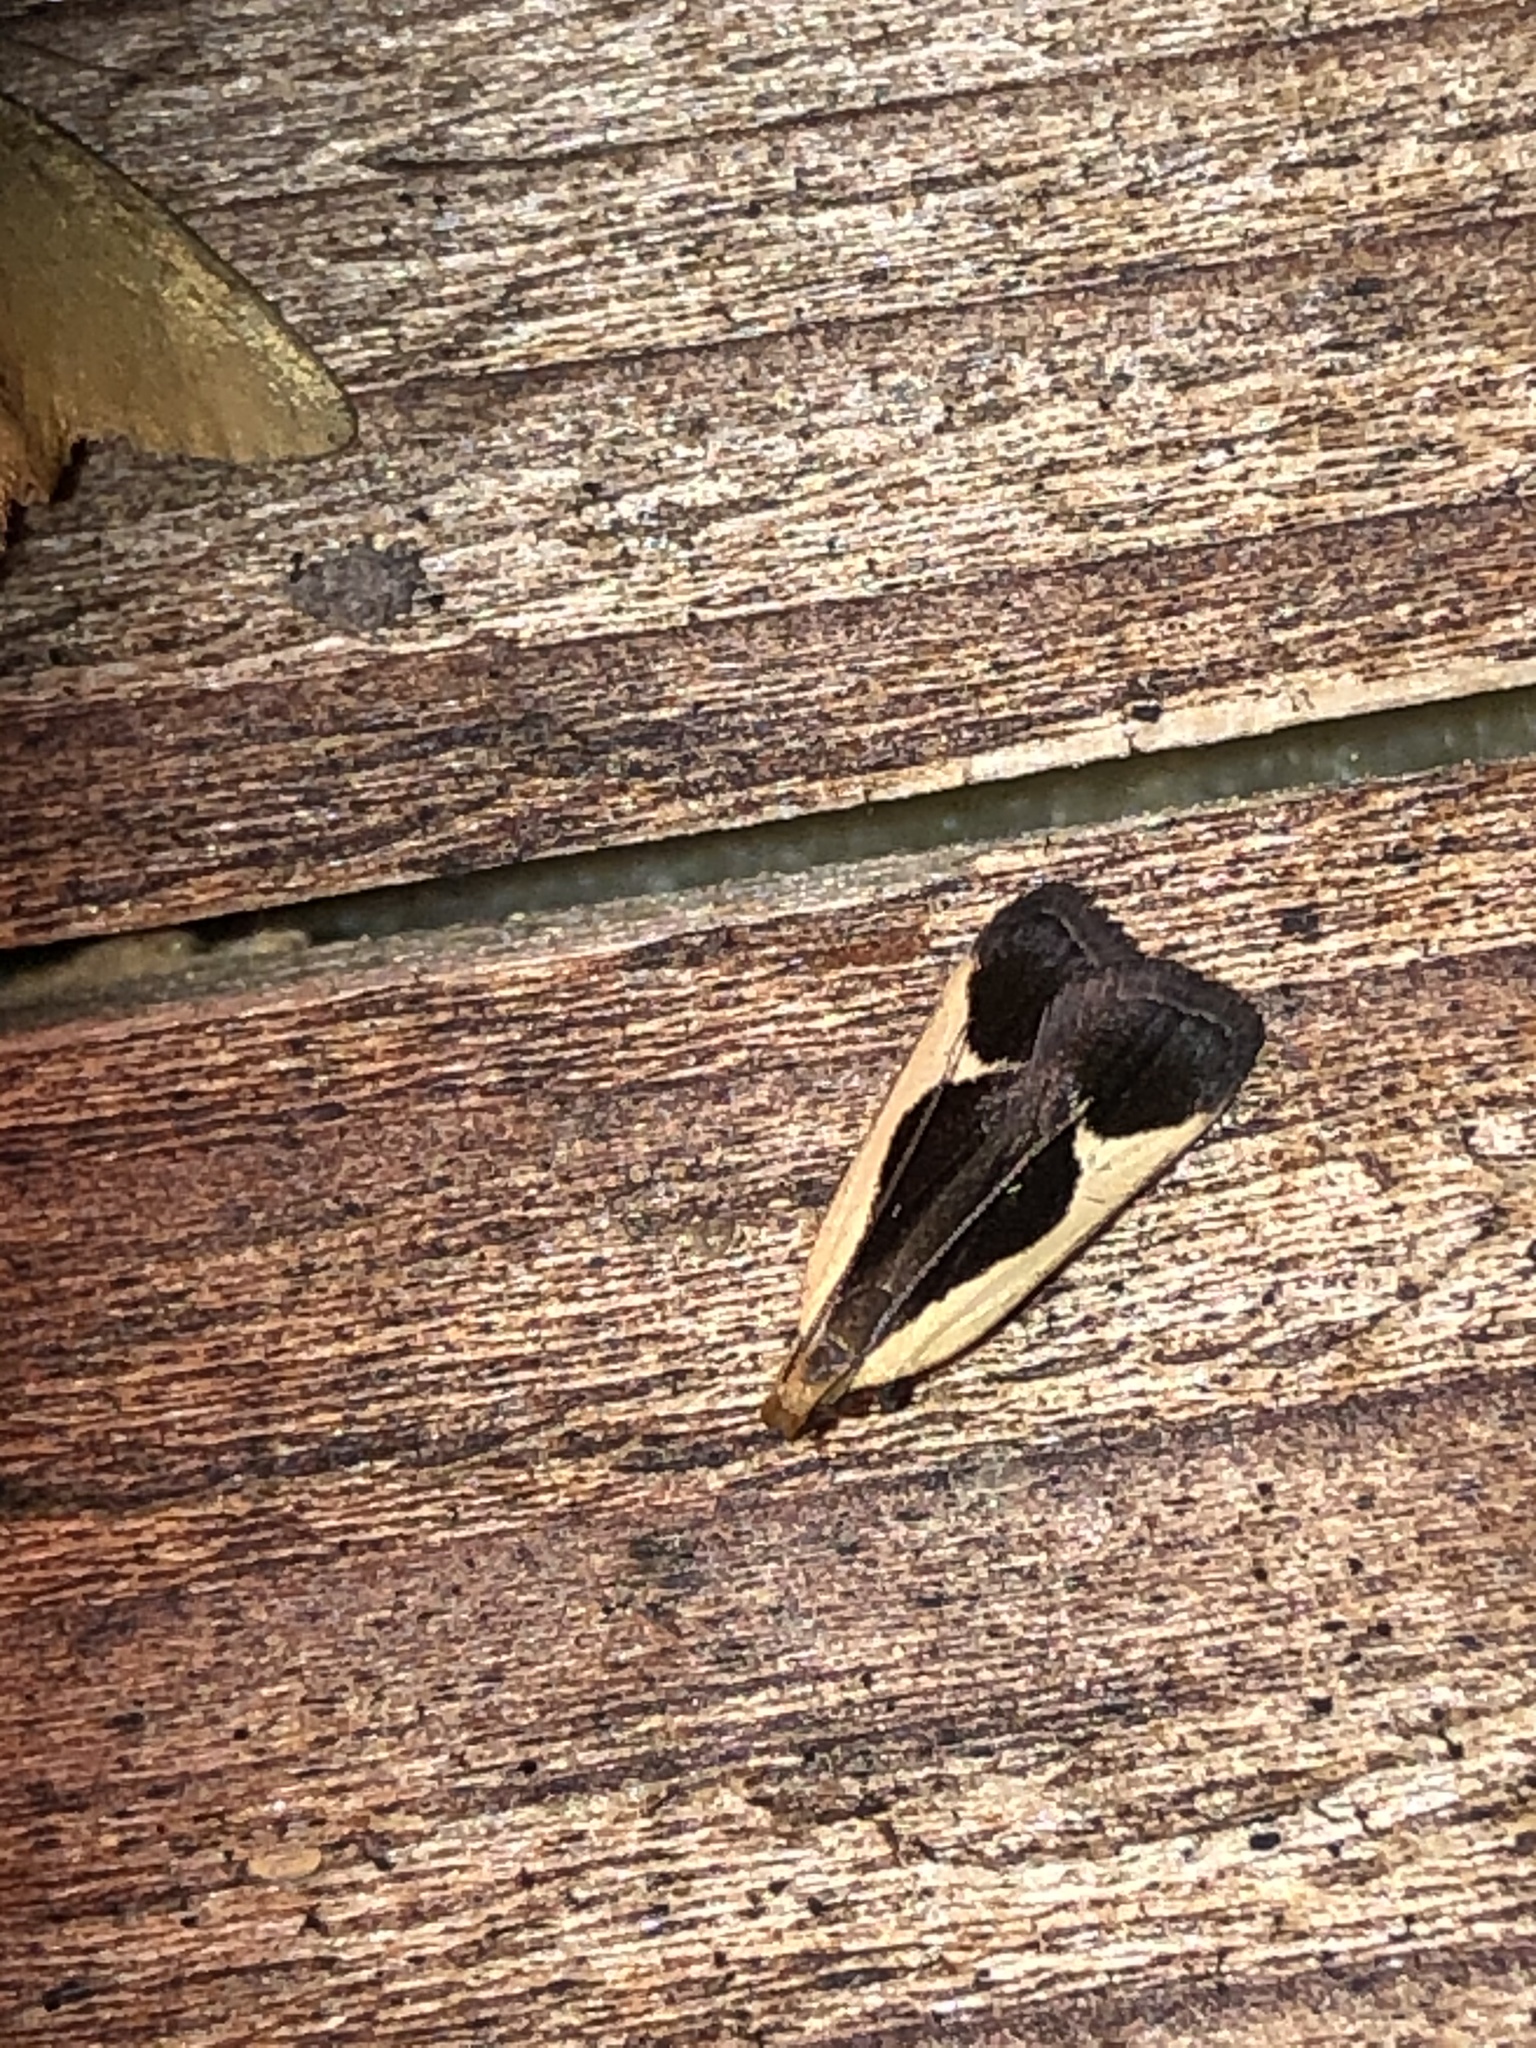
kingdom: Animalia
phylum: Arthropoda
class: Insecta
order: Lepidoptera
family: Gelechiidae
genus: Dichomeris
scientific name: Dichomeris flavocostella
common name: Cream-edged dichomeris moth
